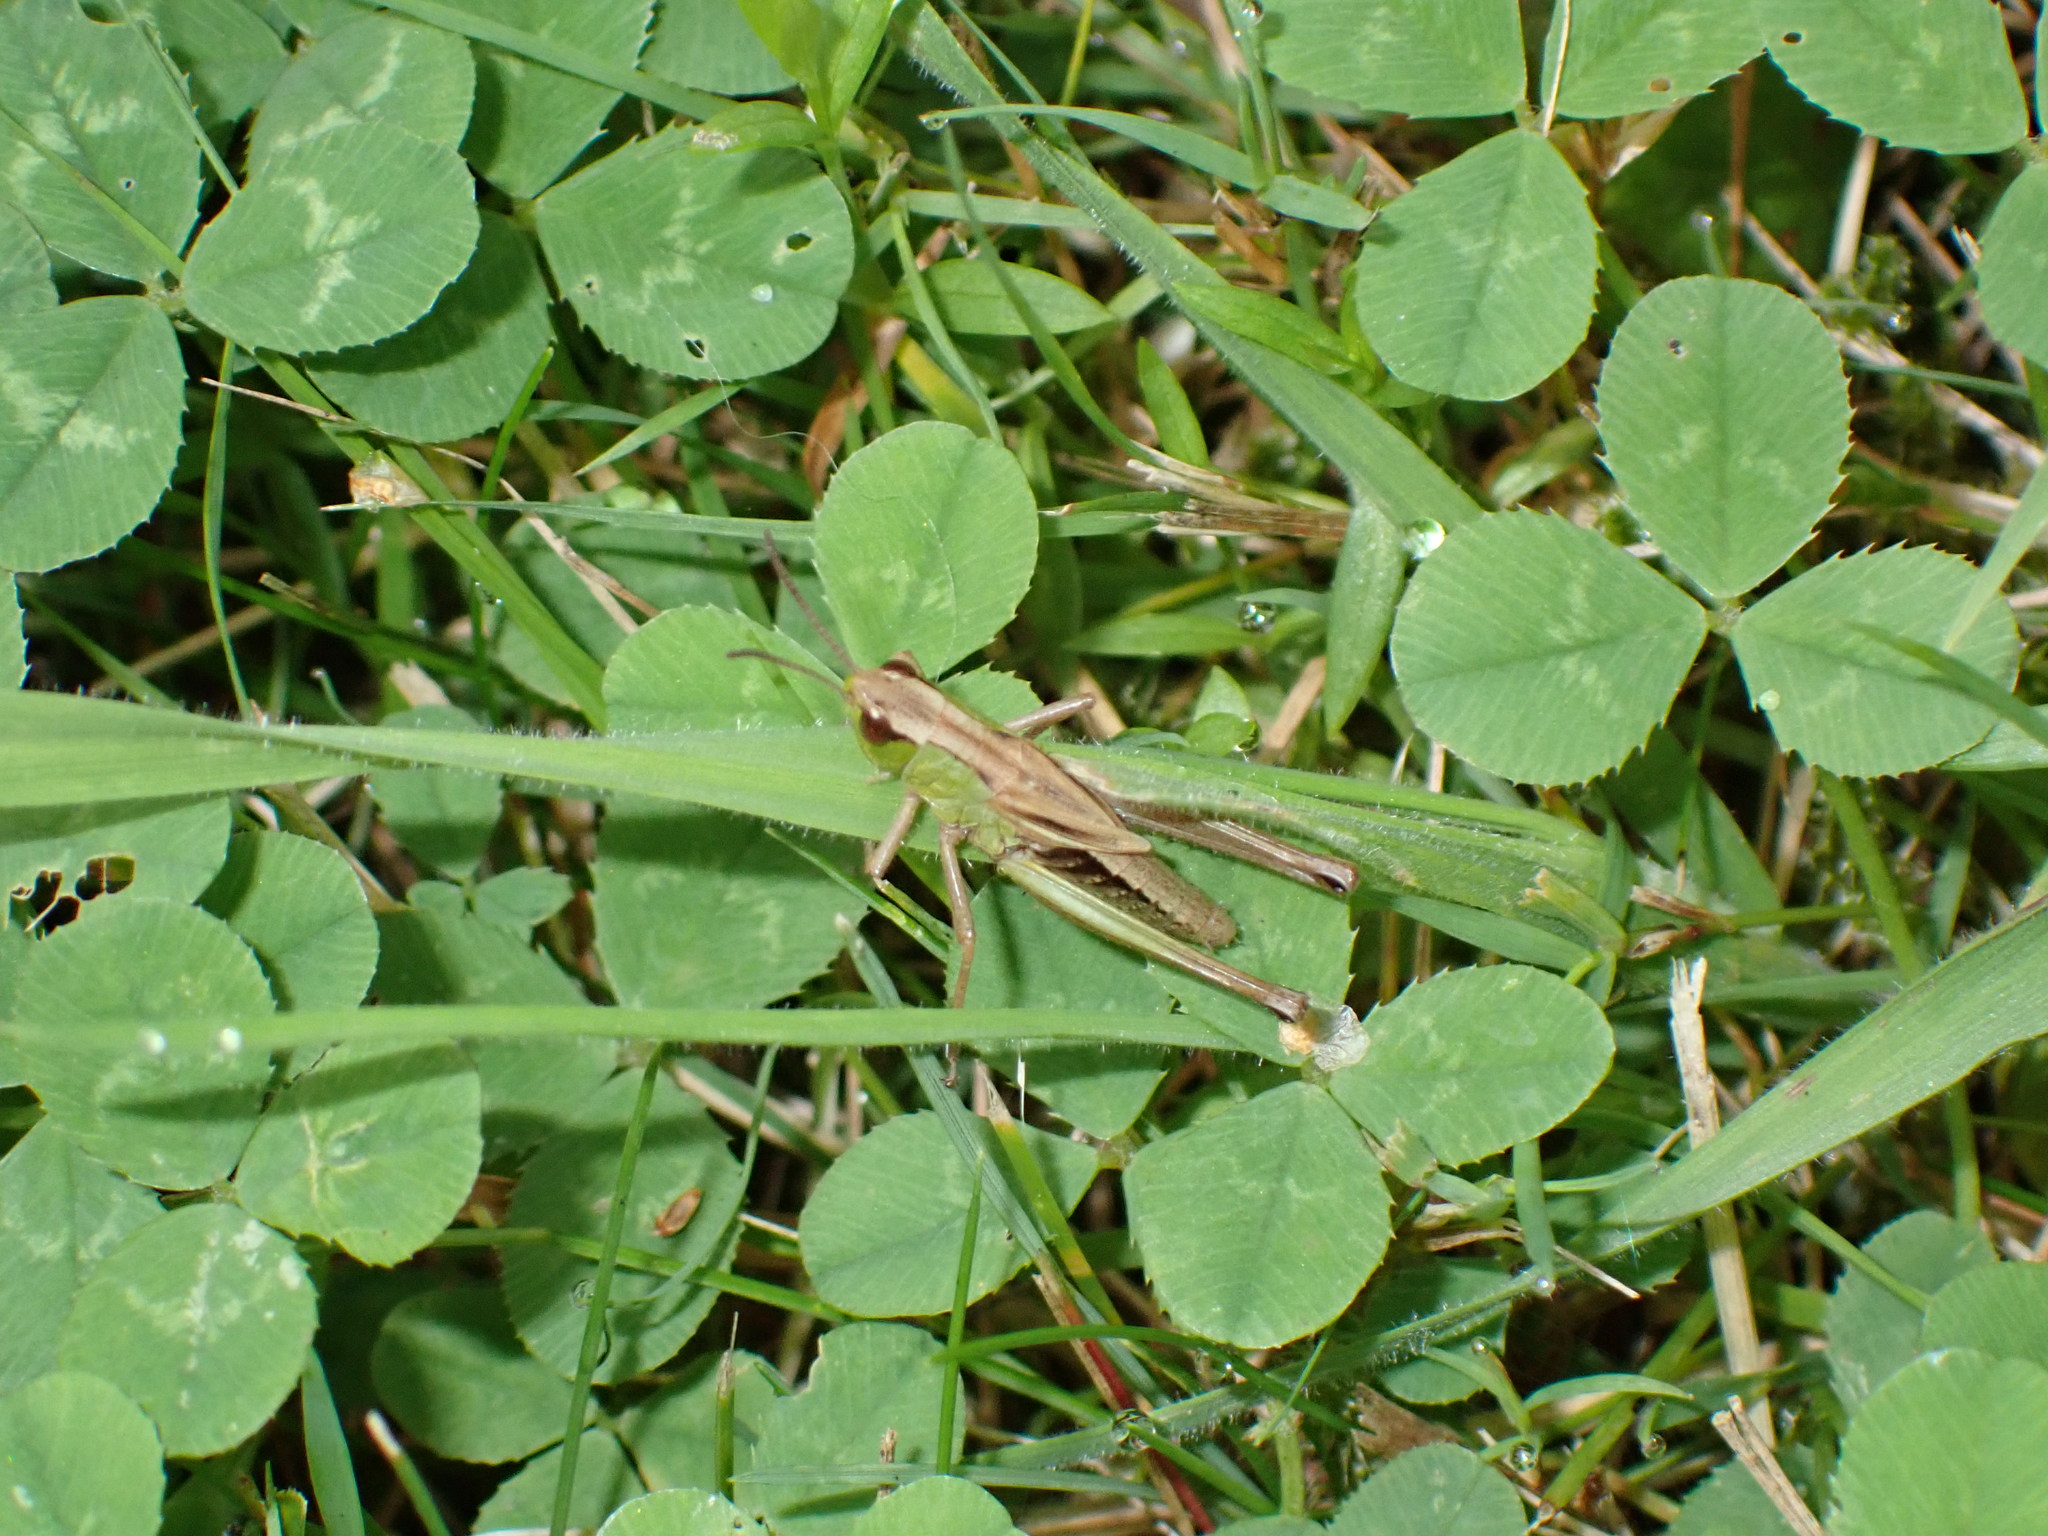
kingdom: Animalia
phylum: Arthropoda
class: Insecta
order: Orthoptera
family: Acrididae
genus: Pseudochorthippus
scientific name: Pseudochorthippus parallelus
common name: Meadow grasshopper
